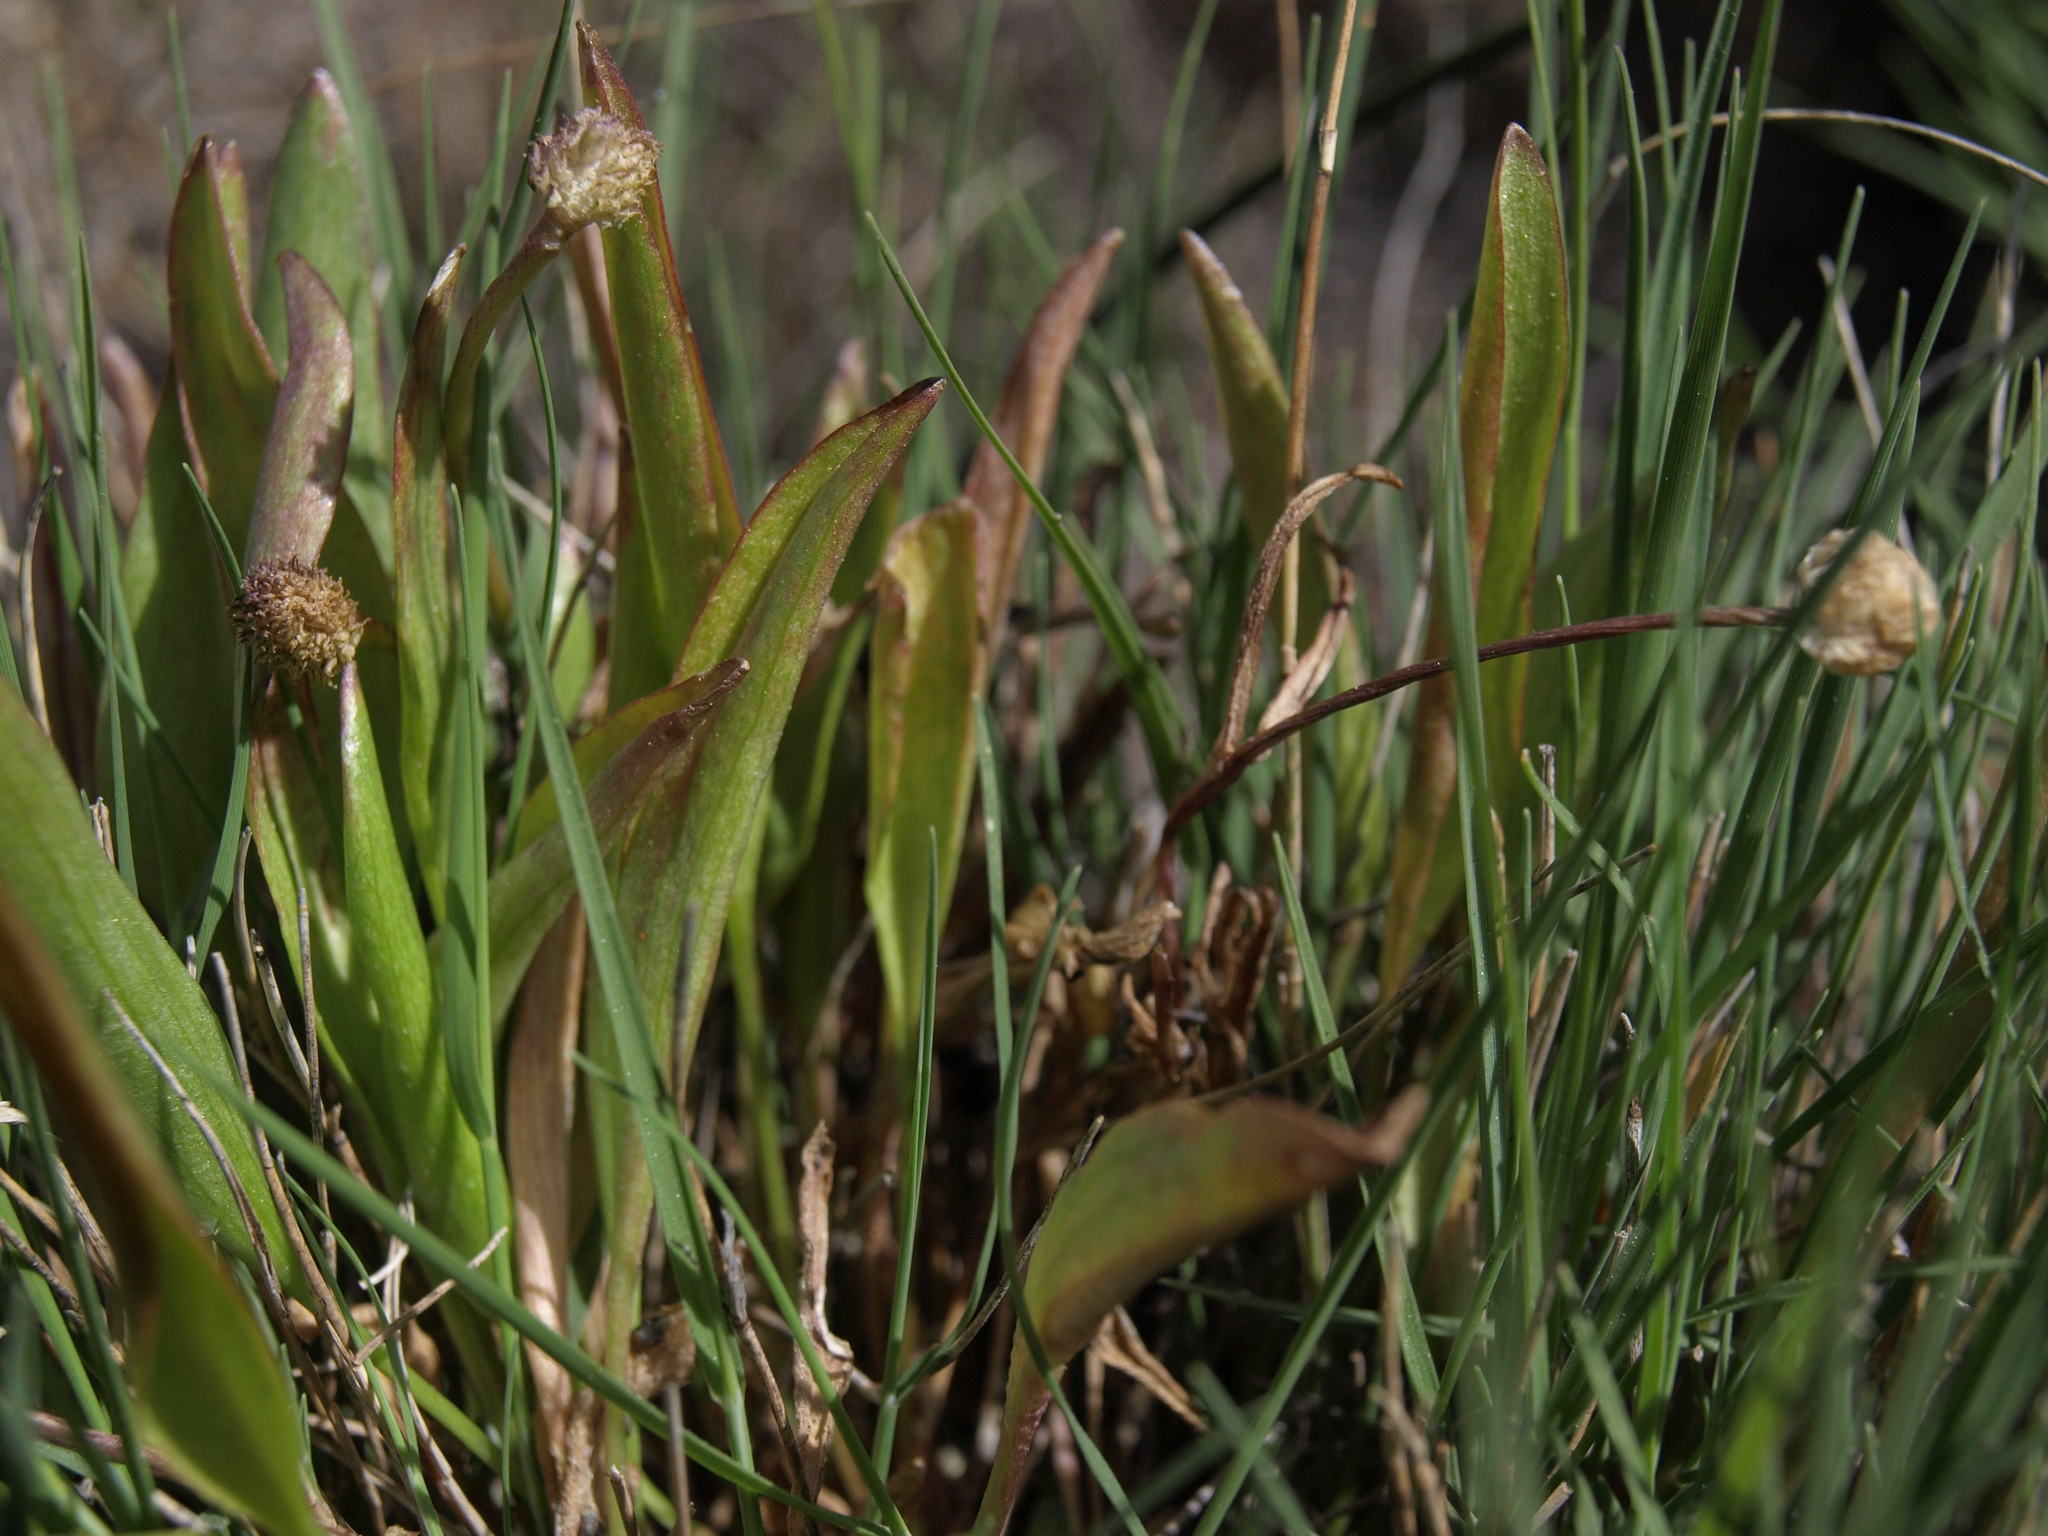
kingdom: Plantae
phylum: Tracheophyta
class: Magnoliopsida
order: Ranunculales
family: Ranunculaceae
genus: Ranunculus
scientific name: Ranunculus glaberrimus
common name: Sagebrush buttercup
